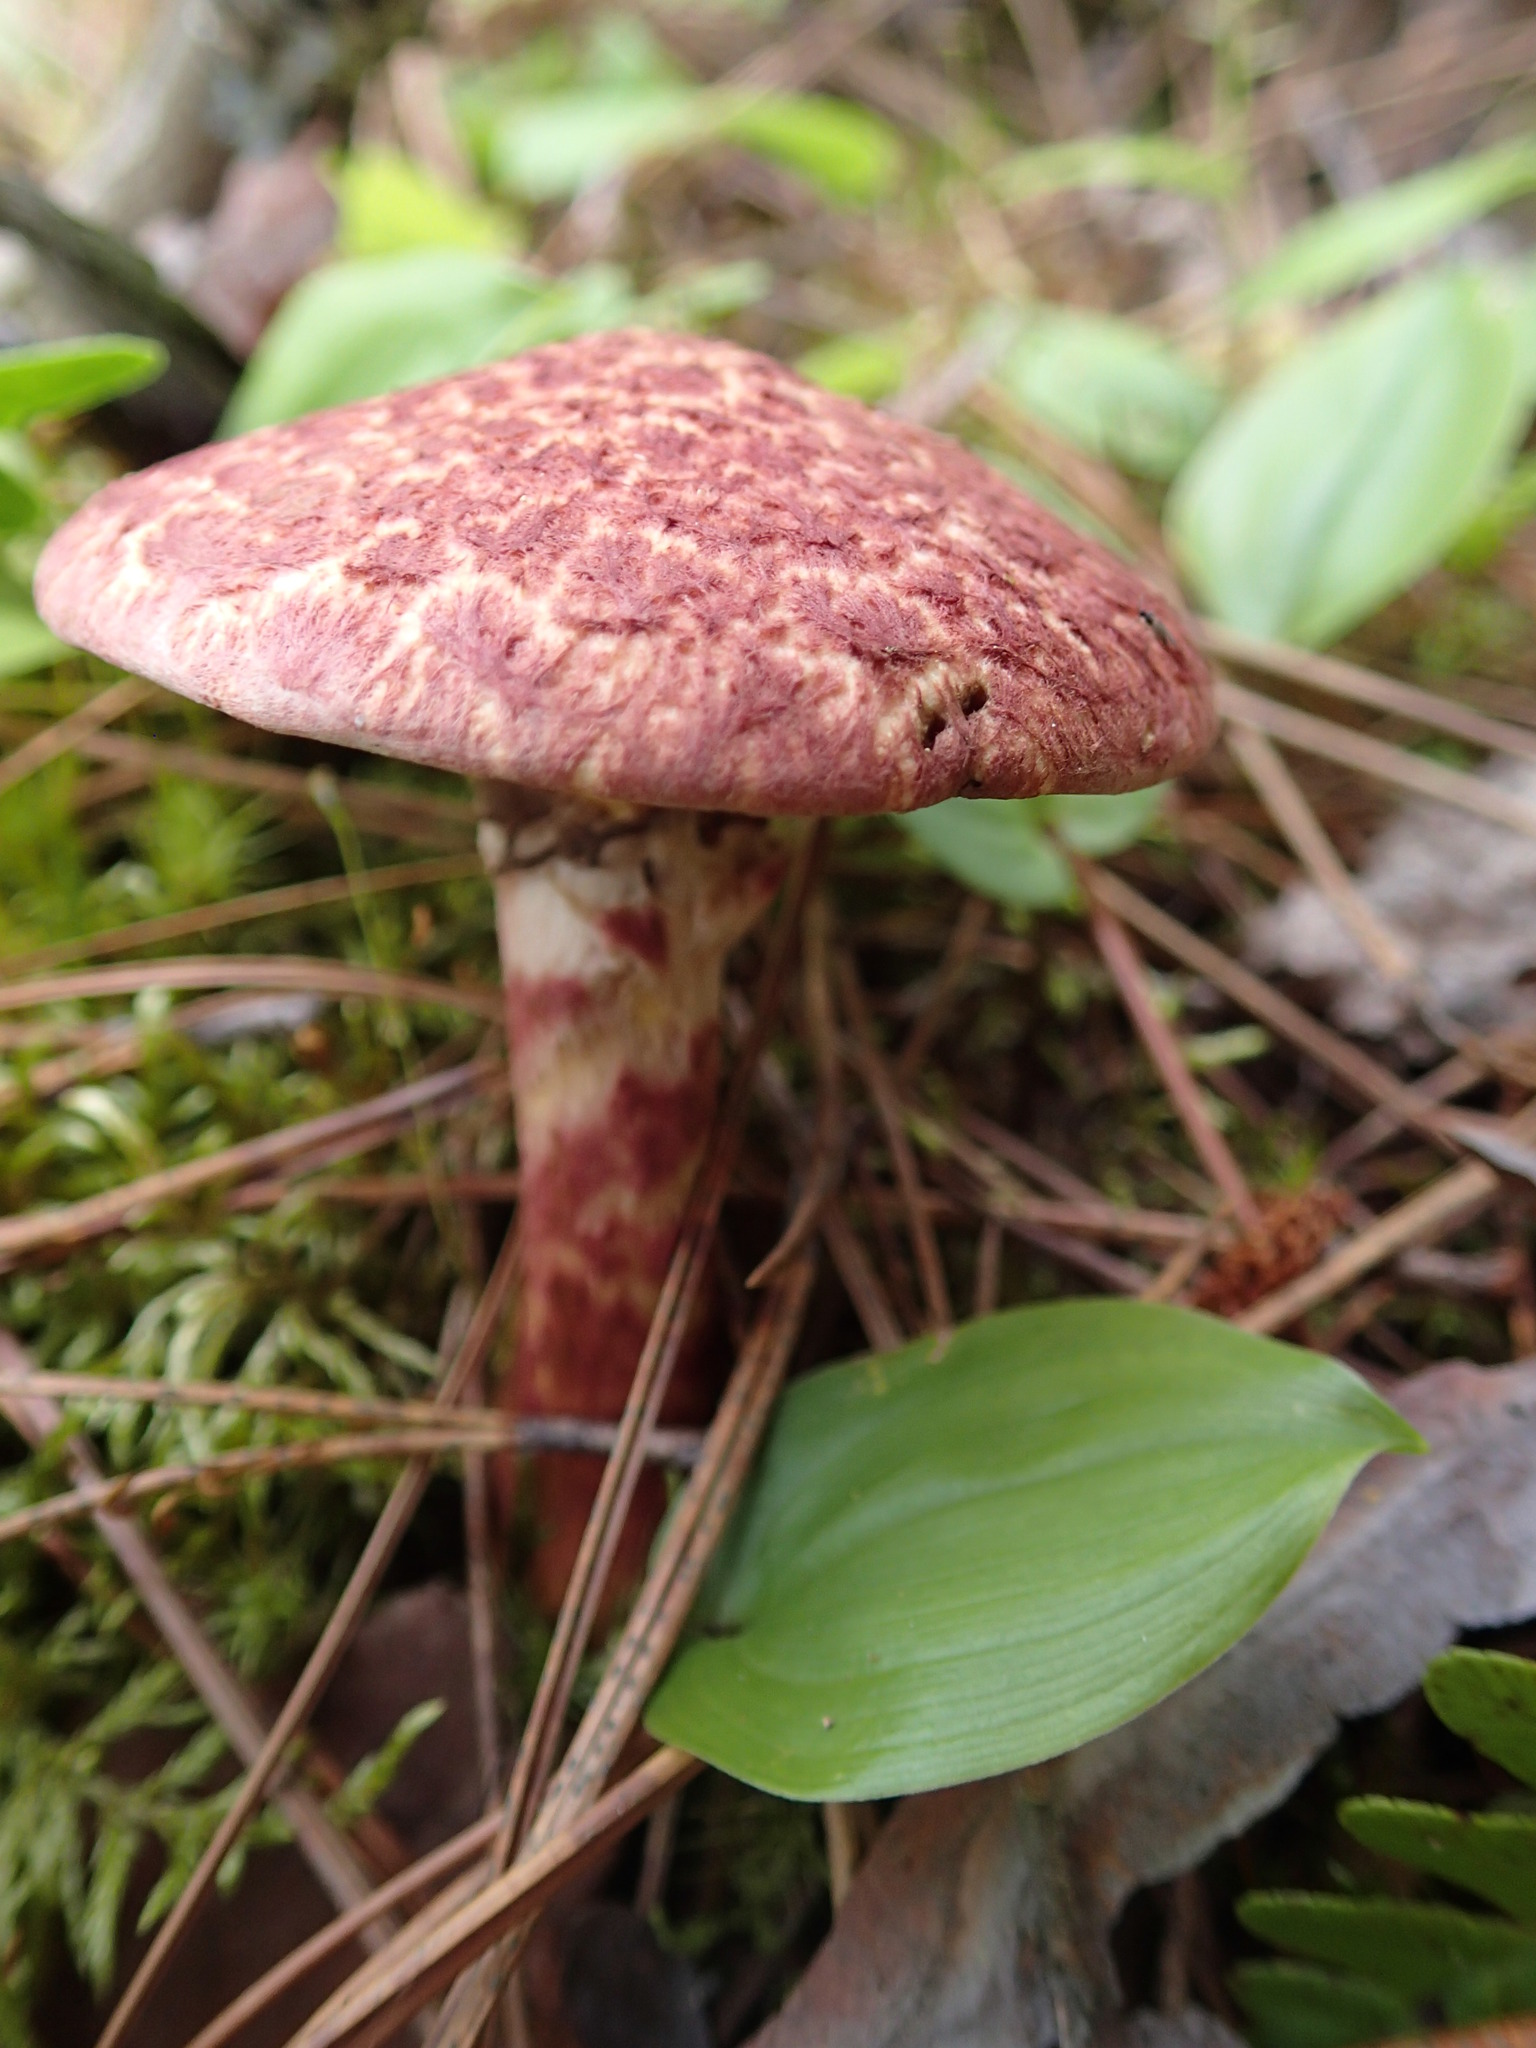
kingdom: Fungi
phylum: Basidiomycota
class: Agaricomycetes
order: Boletales
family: Suillaceae
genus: Suillus
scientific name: Suillus spraguei
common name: Painted suillus
